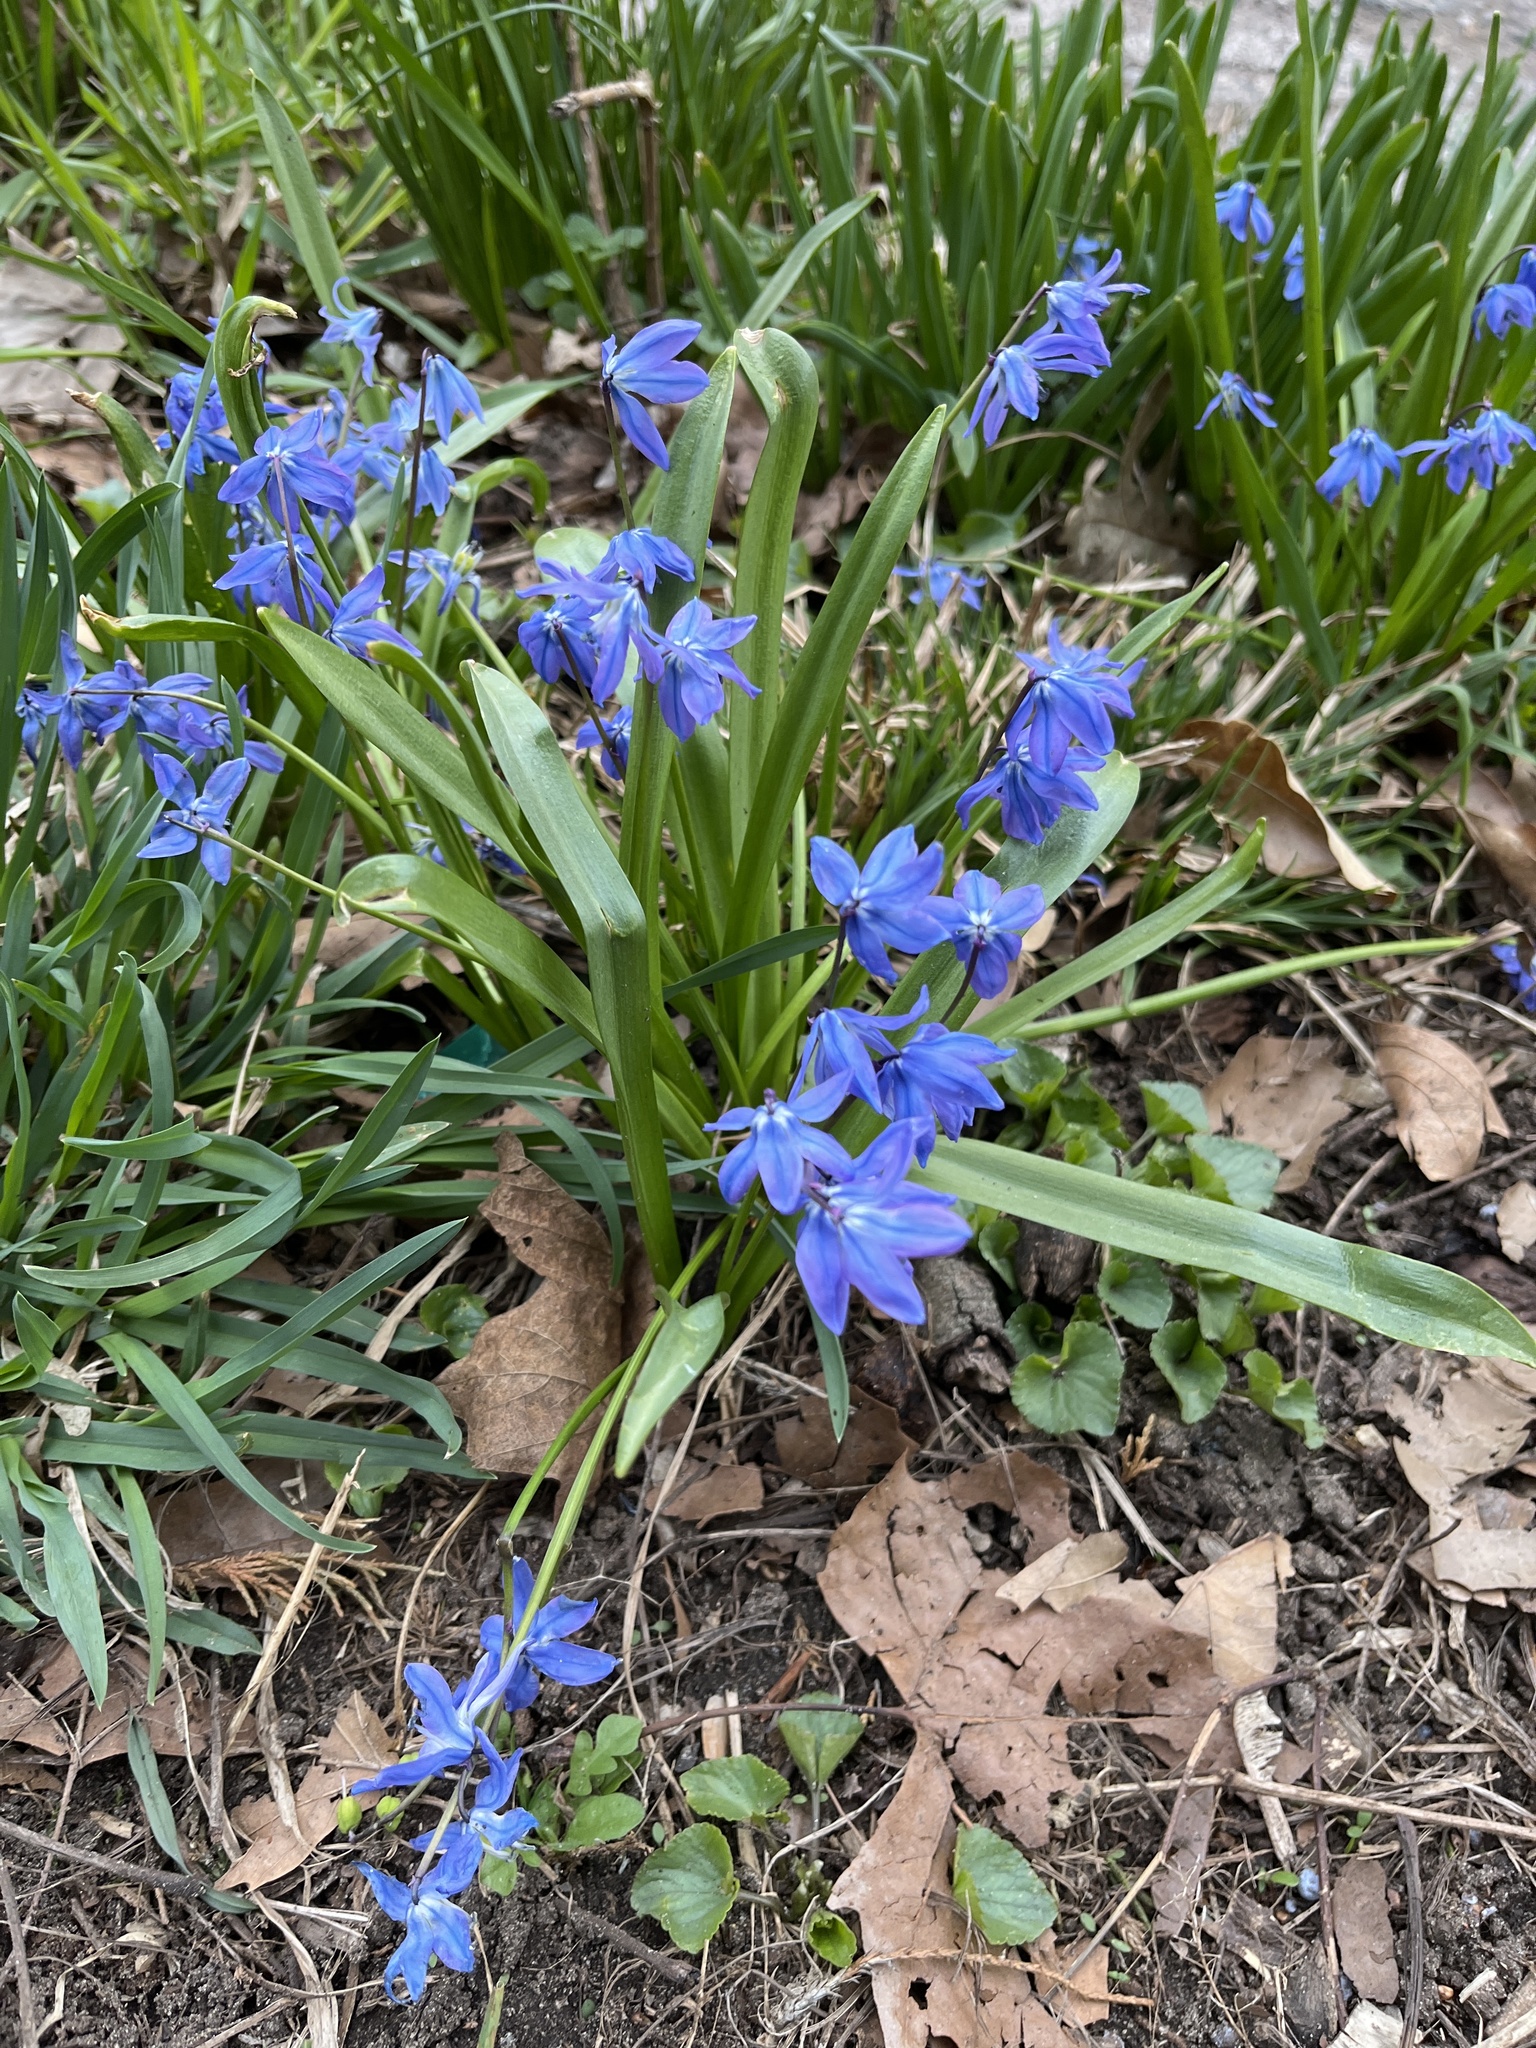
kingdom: Plantae
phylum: Tracheophyta
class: Liliopsida
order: Asparagales
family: Asparagaceae
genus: Scilla
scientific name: Scilla siberica
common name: Siberian squill
